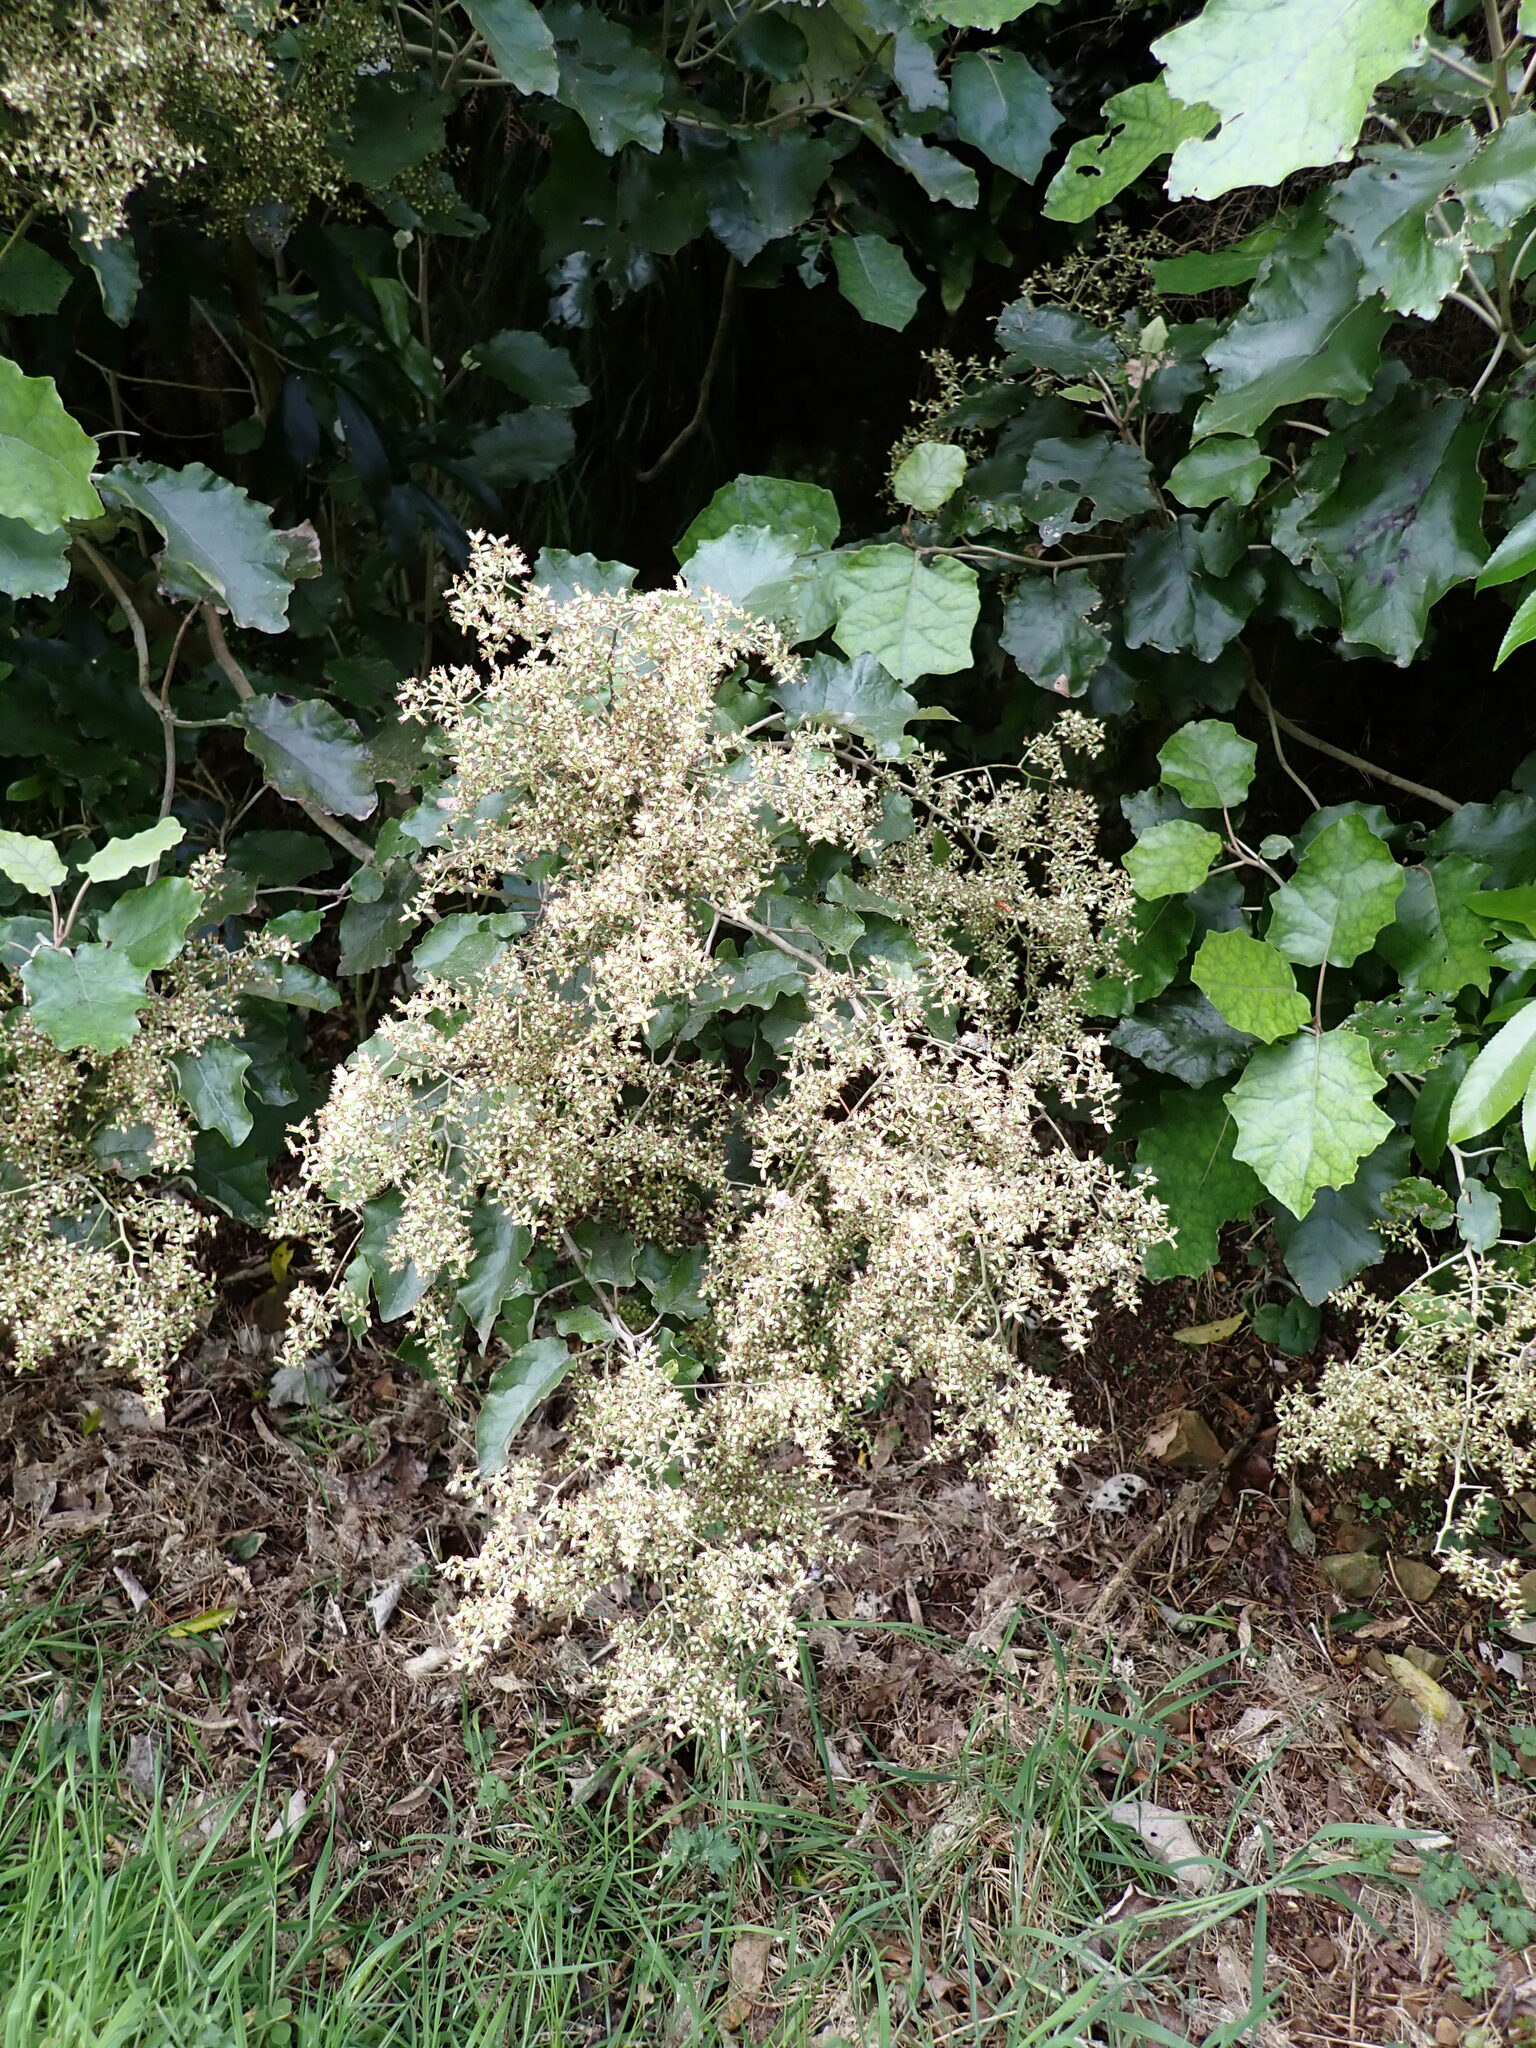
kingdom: Plantae
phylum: Tracheophyta
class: Magnoliopsida
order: Asterales
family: Asteraceae
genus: Brachyglottis
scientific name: Brachyglottis repanda
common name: Hedge ragwort
